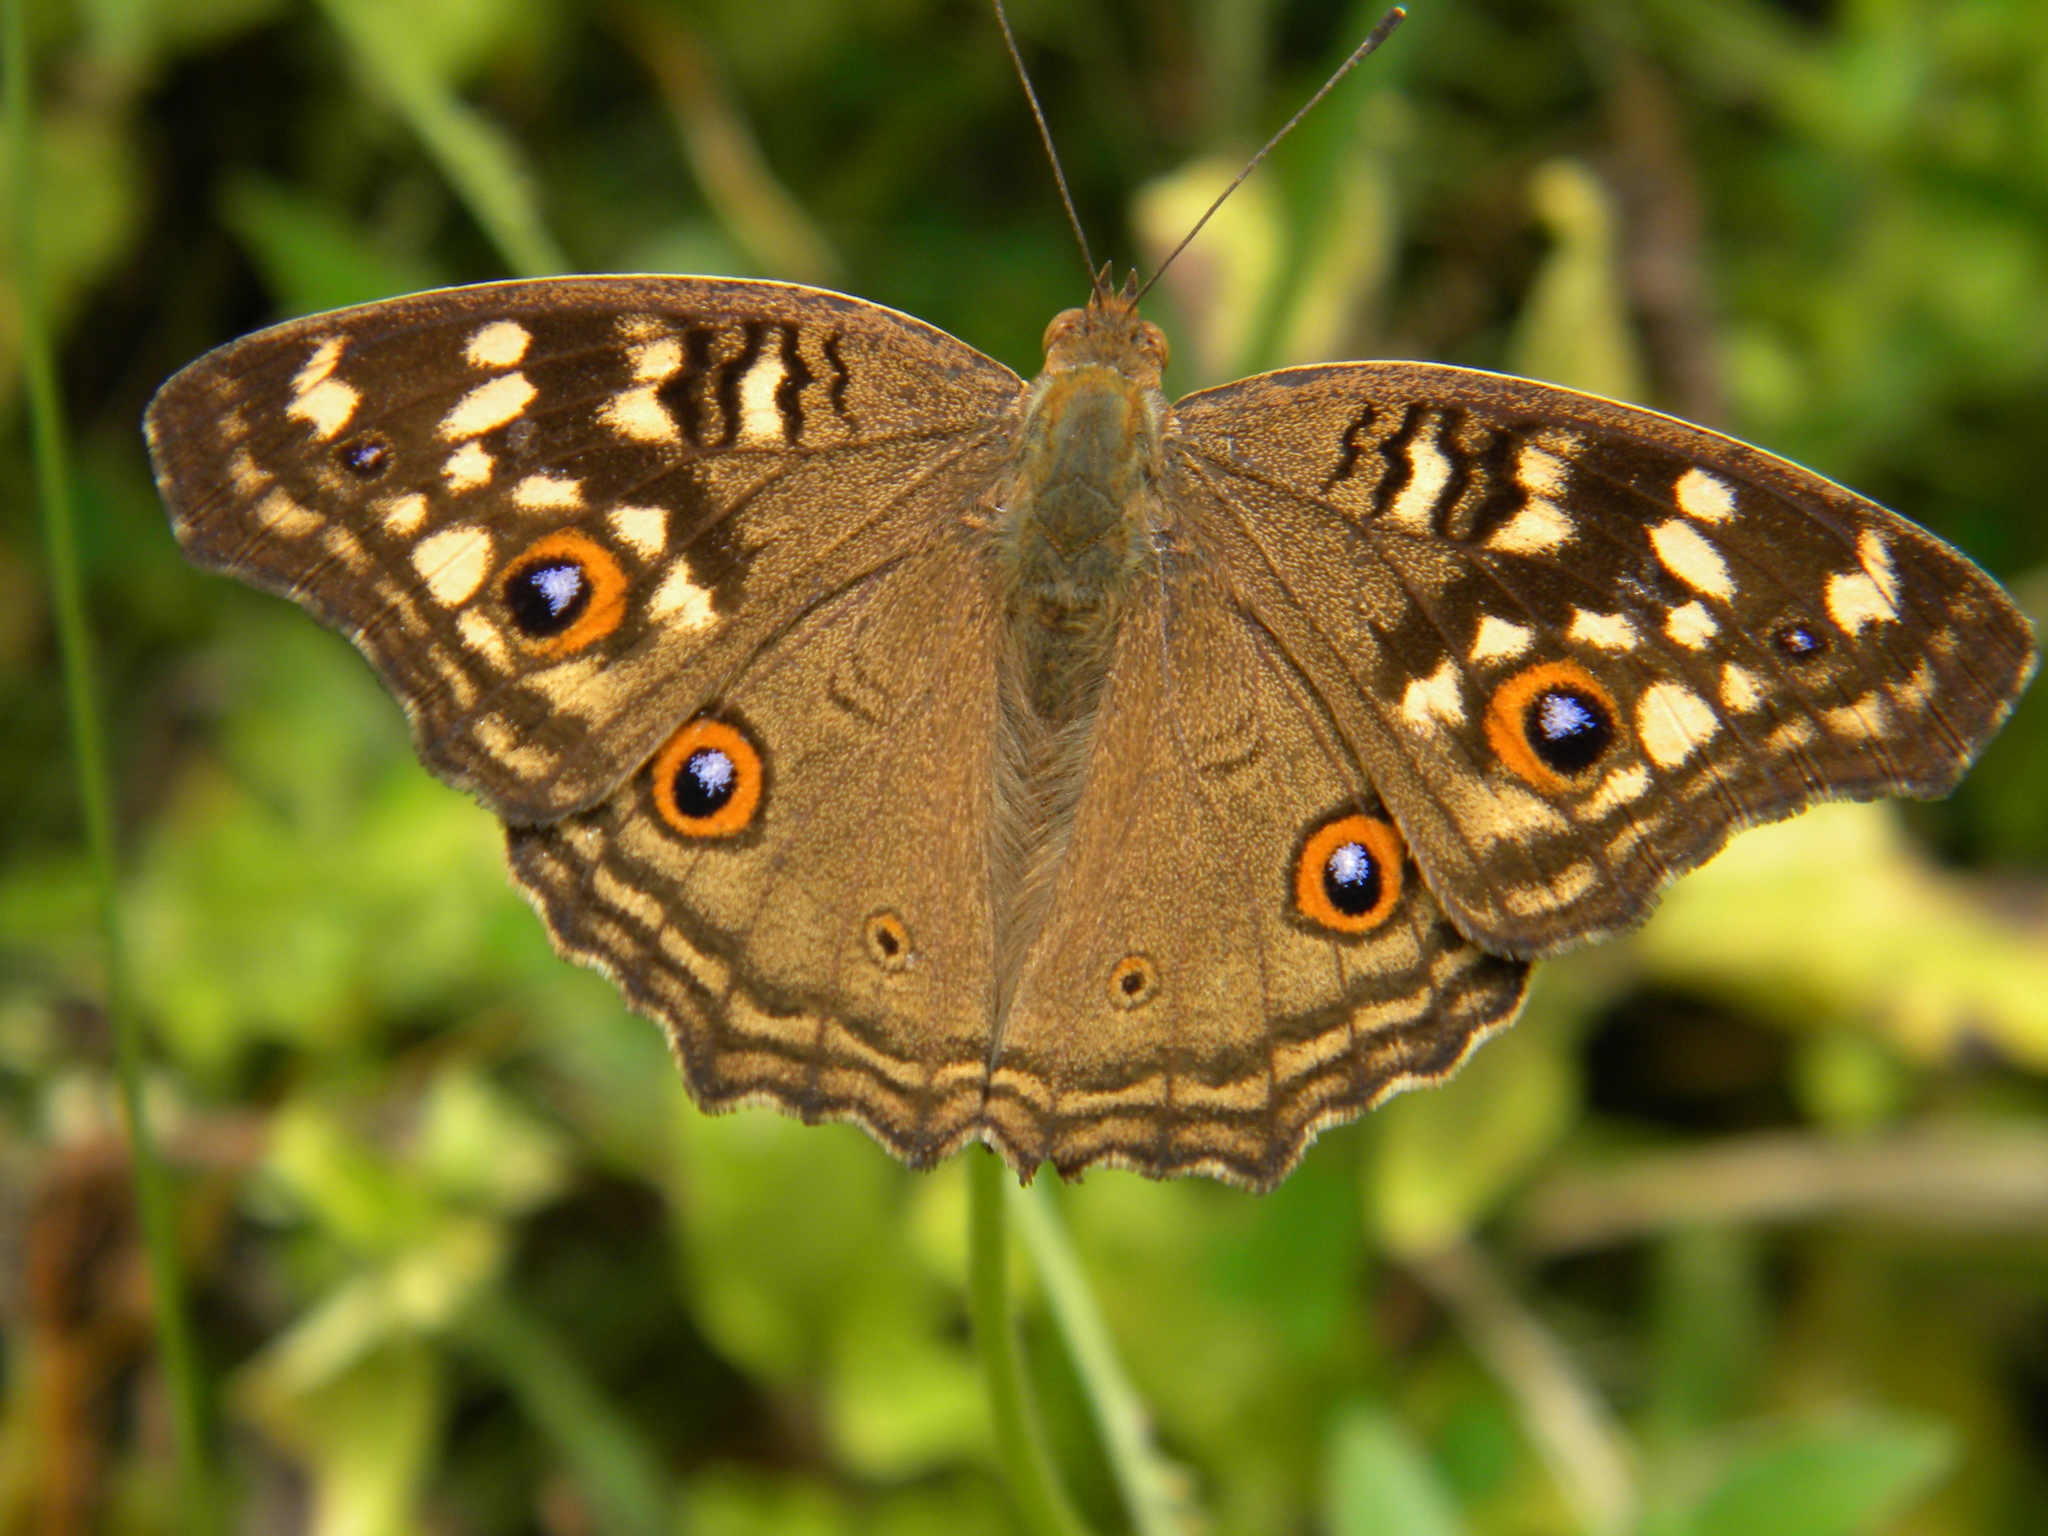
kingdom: Animalia
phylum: Arthropoda
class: Insecta
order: Lepidoptera
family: Nymphalidae
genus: Junonia
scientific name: Junonia lemonias
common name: Lemon pansy
